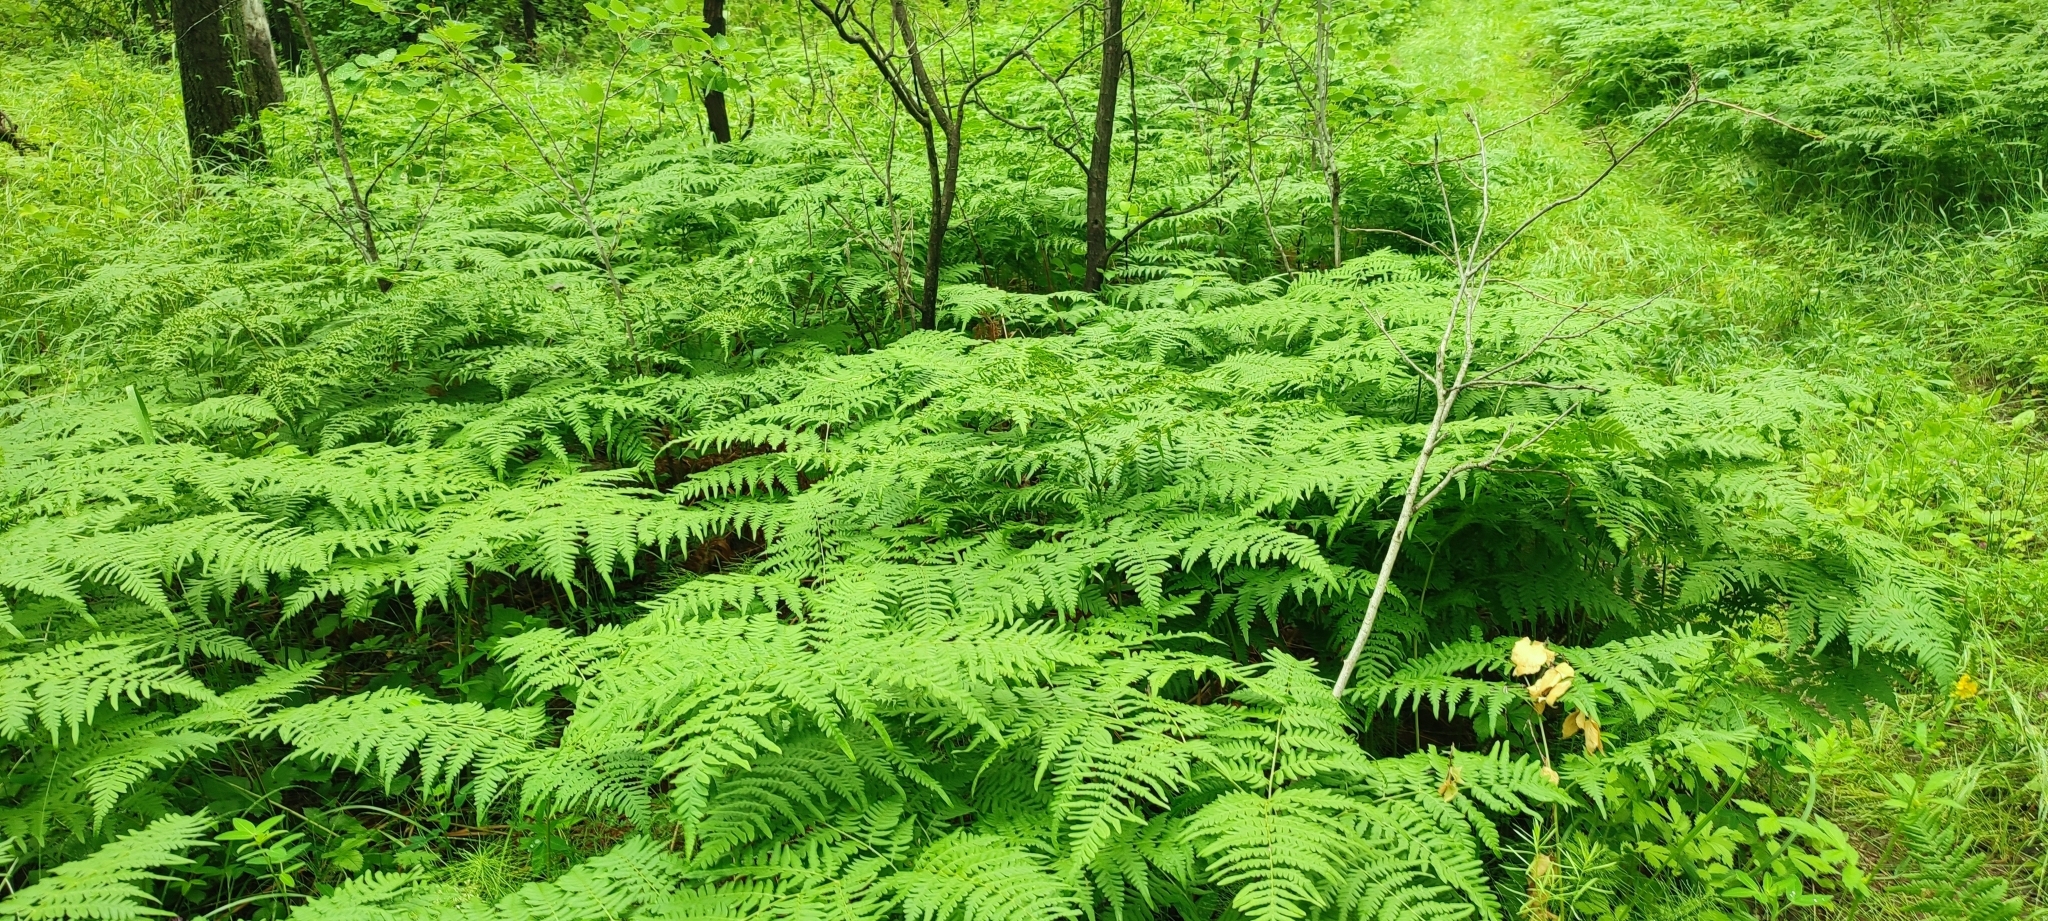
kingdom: Plantae
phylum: Tracheophyta
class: Polypodiopsida
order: Polypodiales
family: Dennstaedtiaceae
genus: Pteridium
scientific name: Pteridium aquilinum
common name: Bracken
